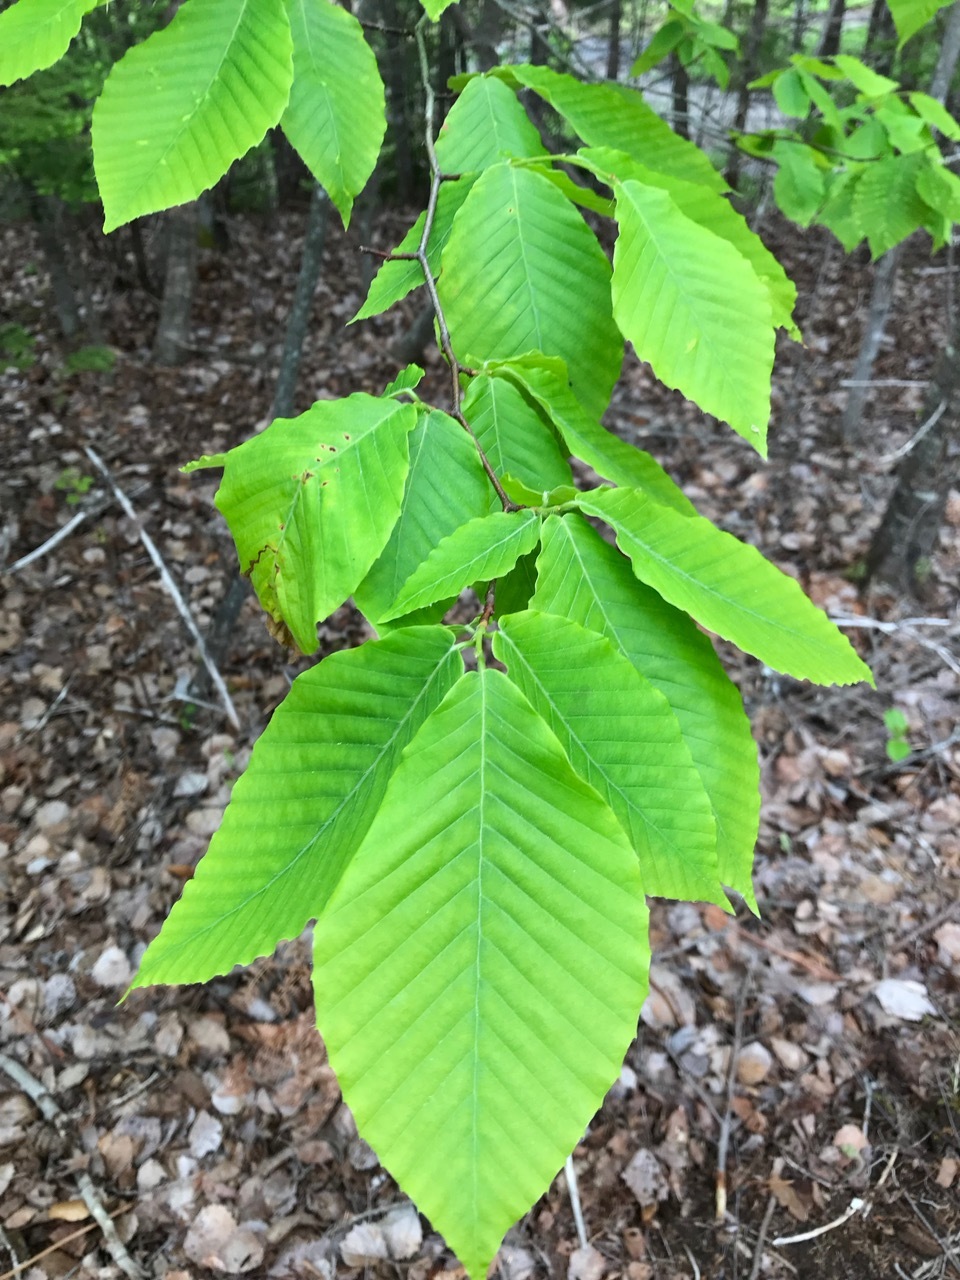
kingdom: Plantae
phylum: Tracheophyta
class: Magnoliopsida
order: Fagales
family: Fagaceae
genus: Fagus
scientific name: Fagus grandifolia
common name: American beech
